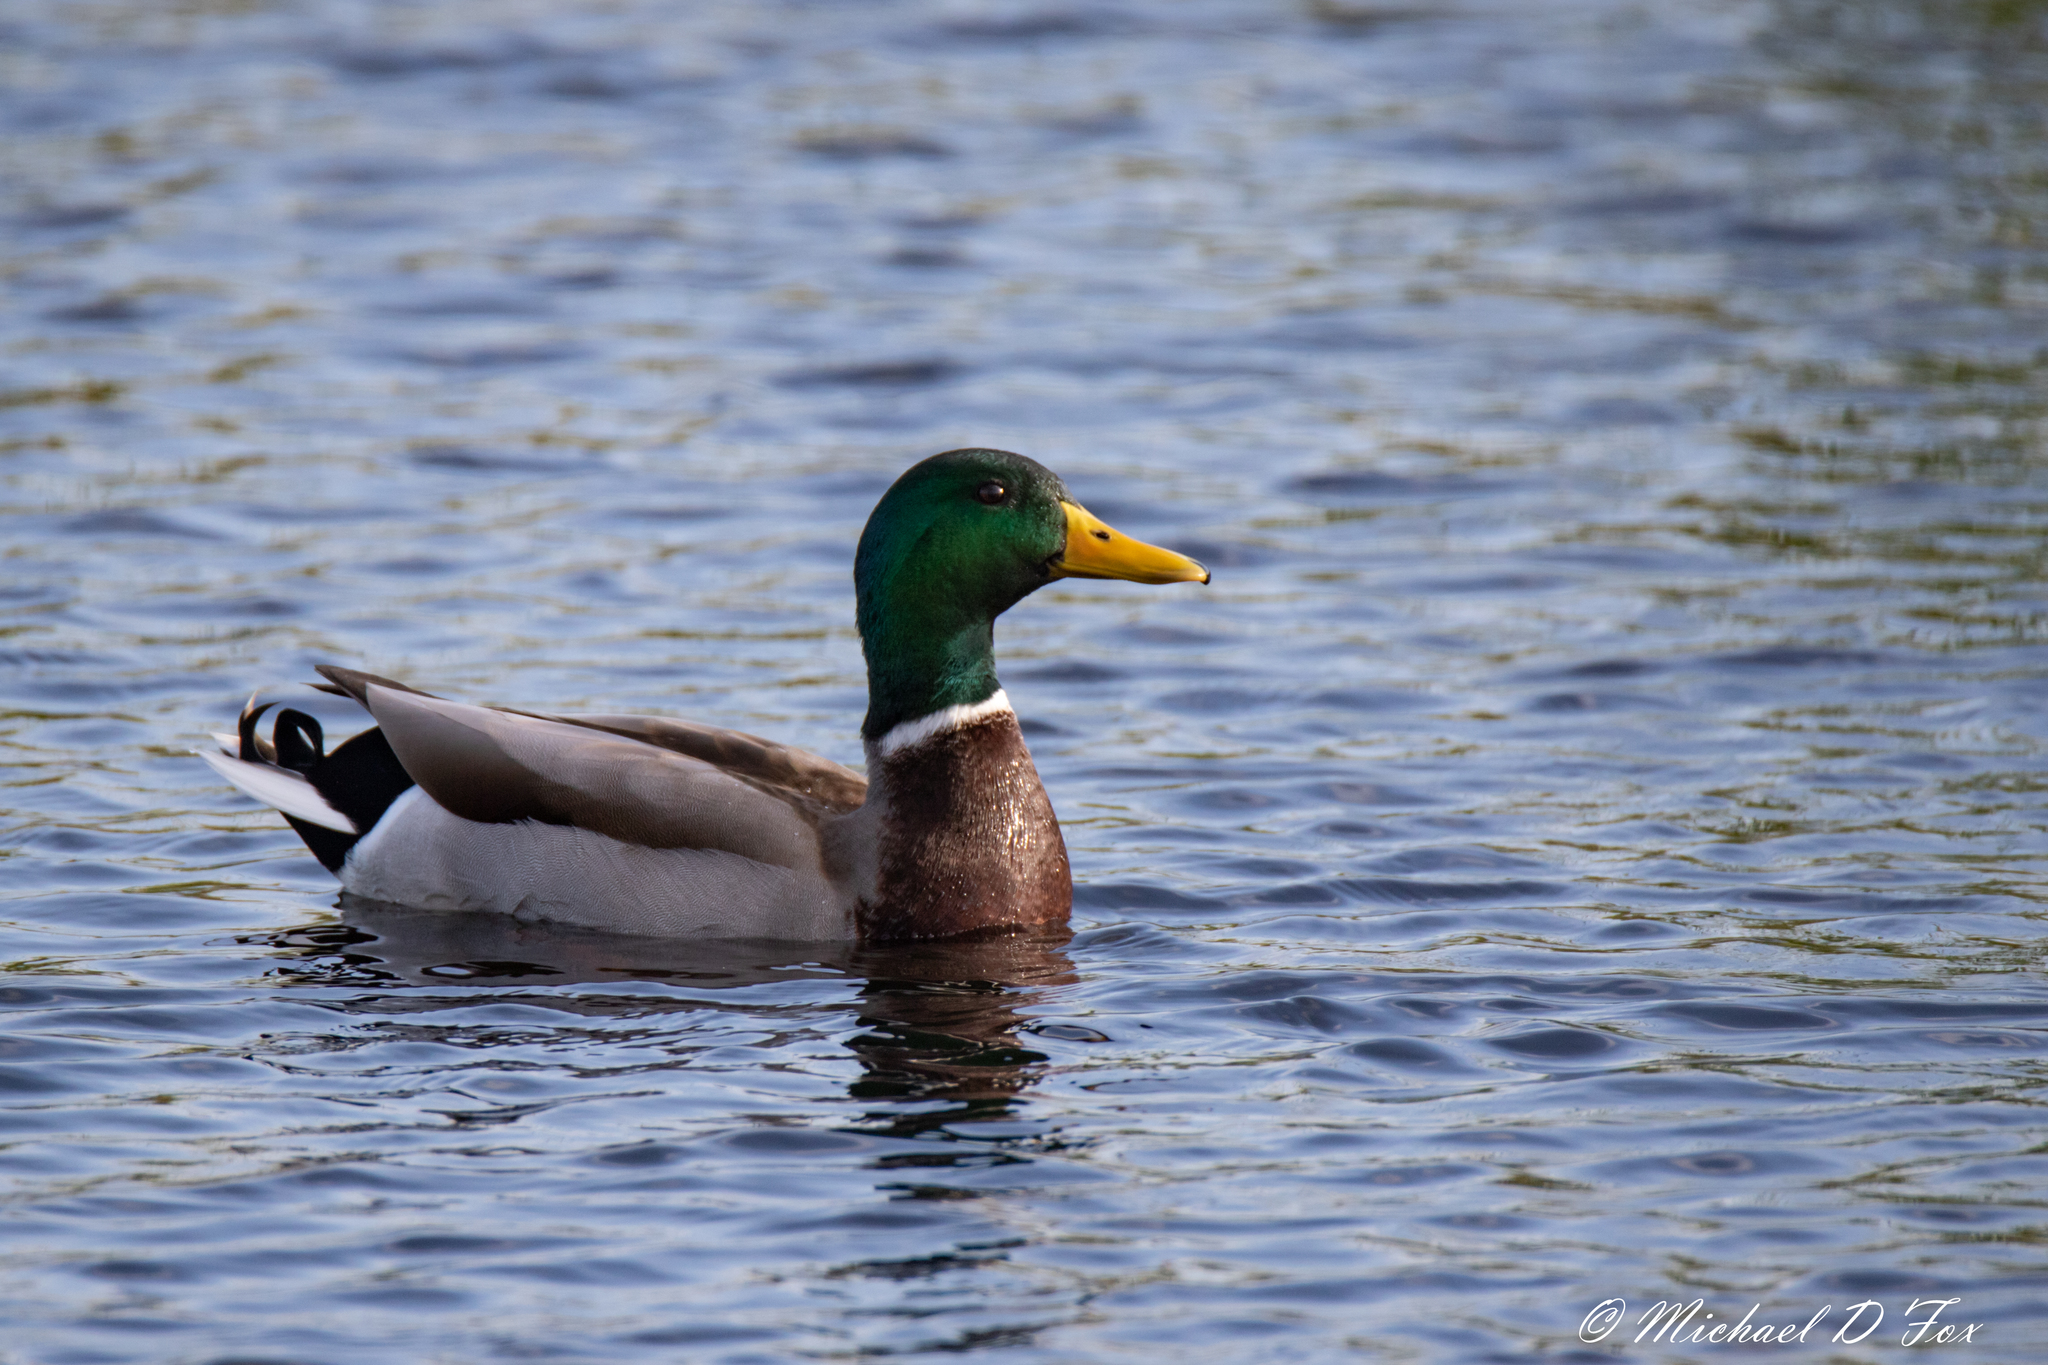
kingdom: Animalia
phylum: Chordata
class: Aves
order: Anseriformes
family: Anatidae
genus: Anas
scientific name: Anas platyrhynchos
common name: Mallard
